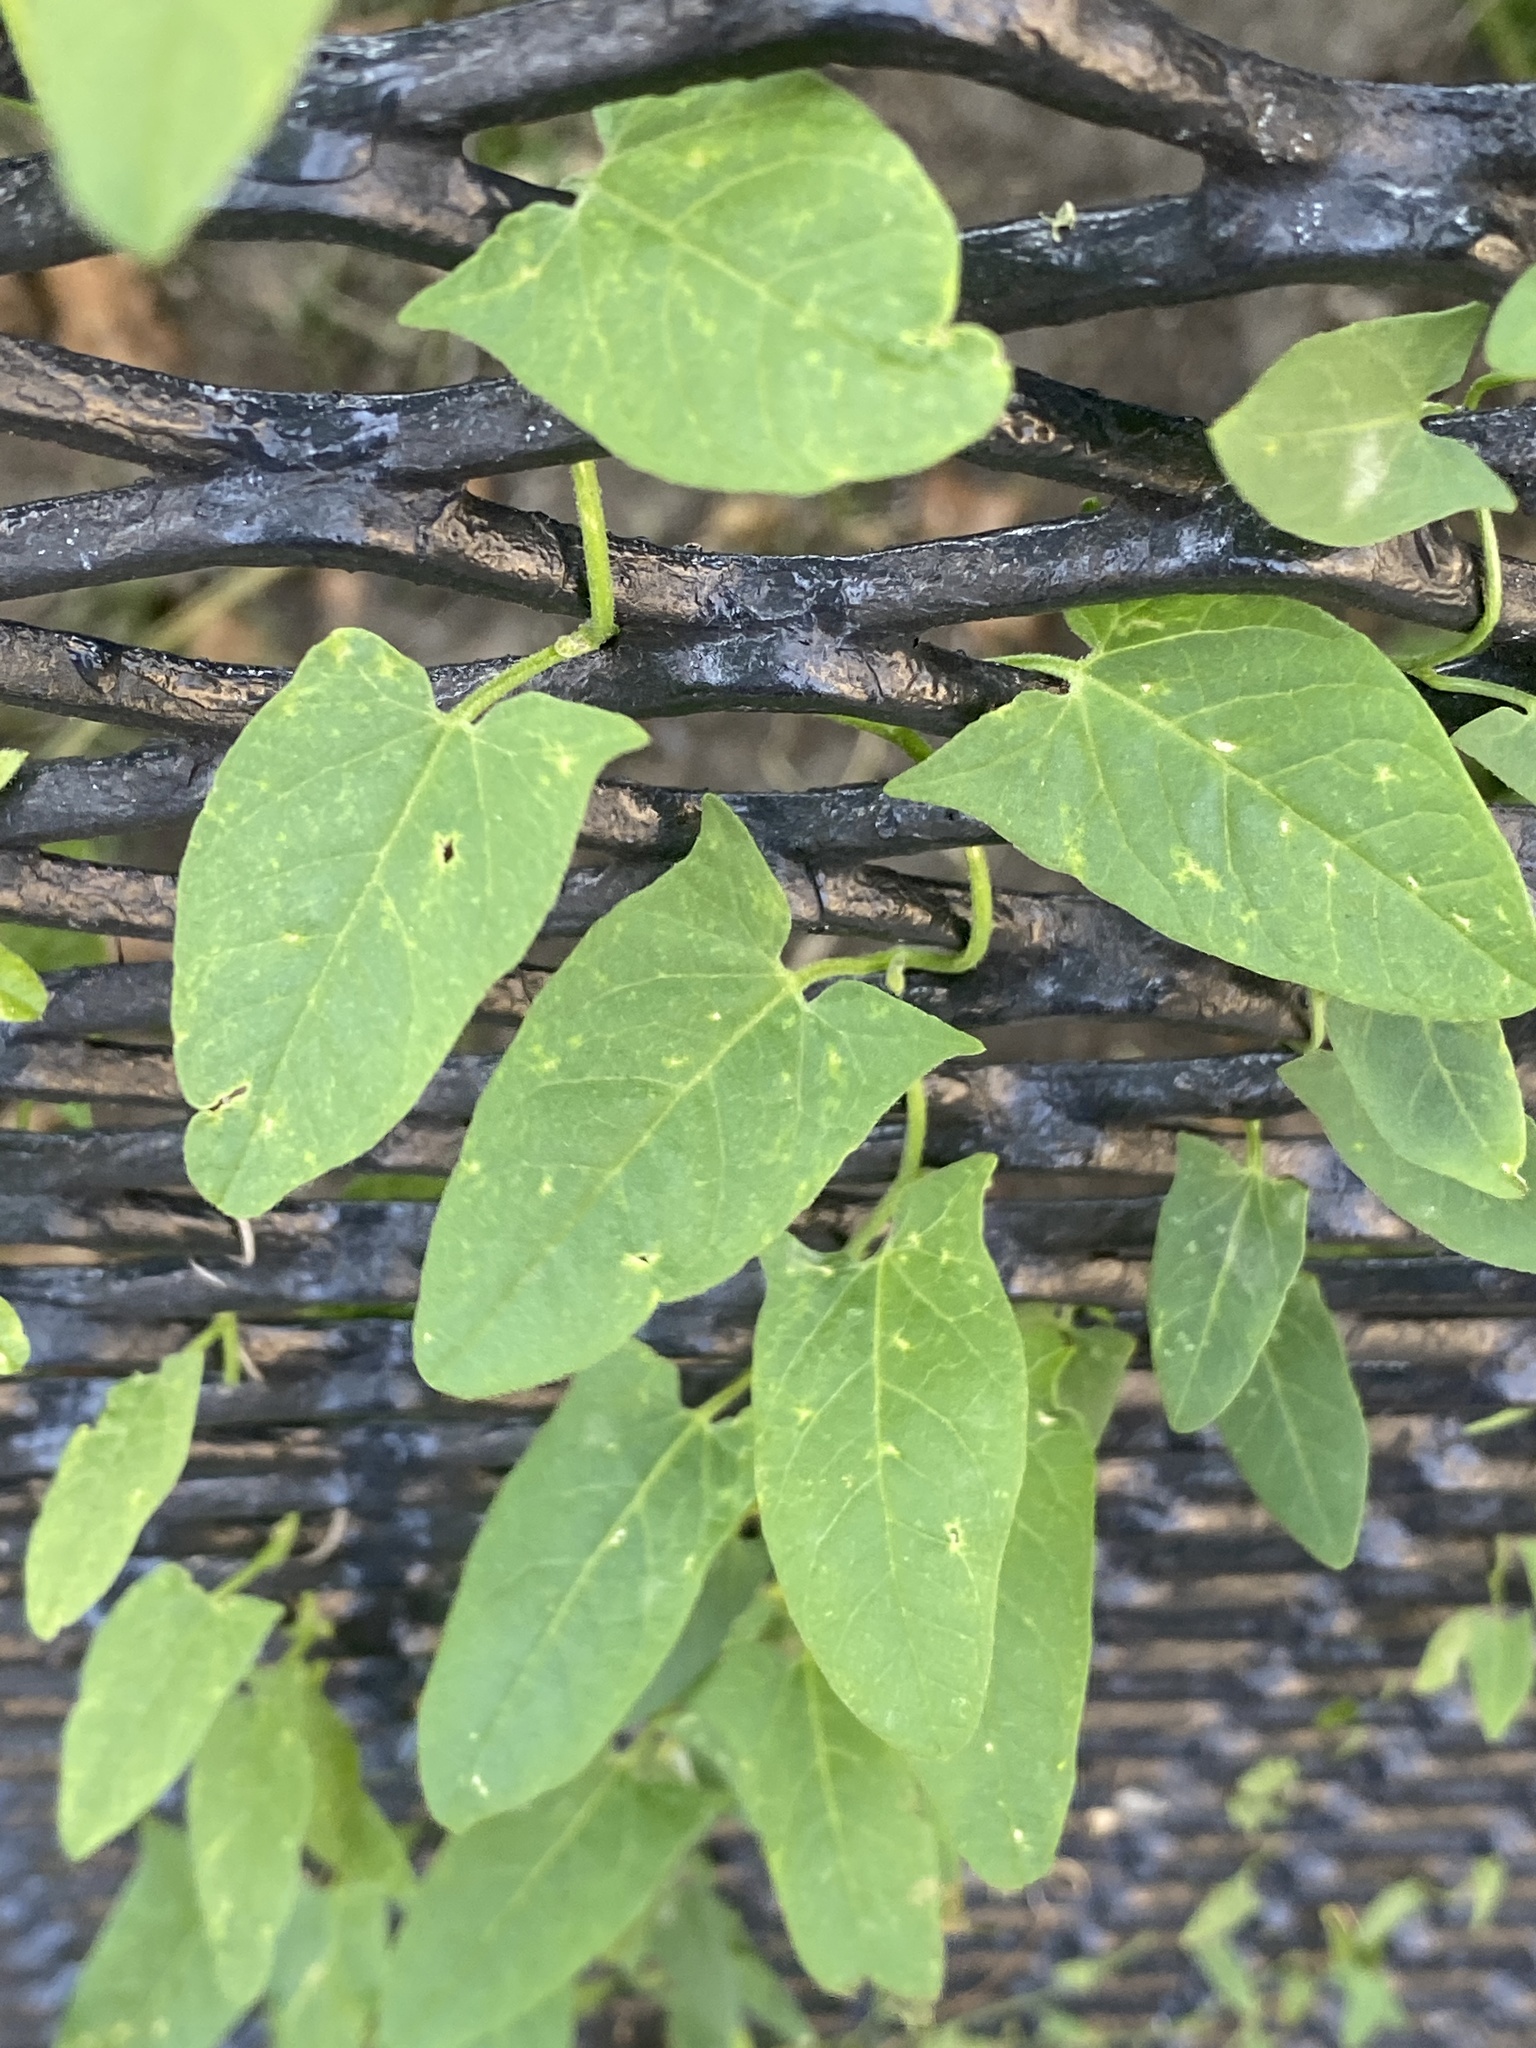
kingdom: Plantae
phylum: Tracheophyta
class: Magnoliopsida
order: Solanales
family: Convolvulaceae
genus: Convolvulus
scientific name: Convolvulus arvensis
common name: Field bindweed
